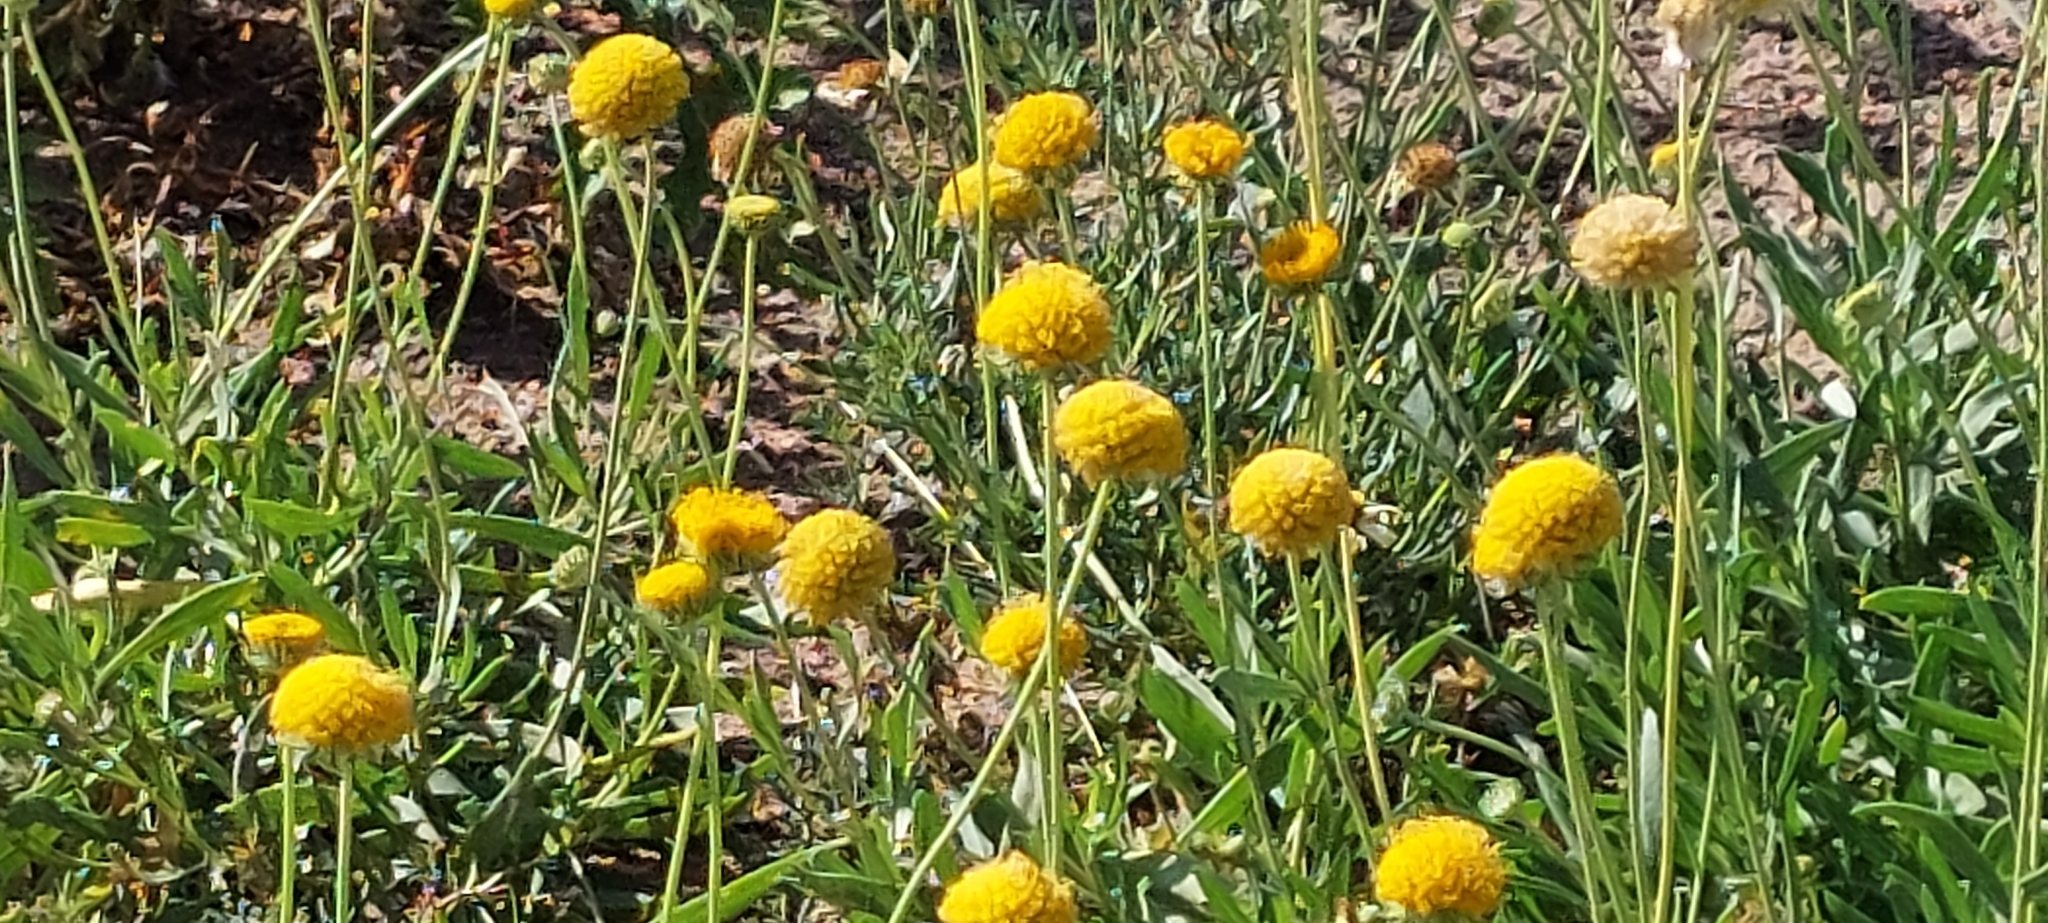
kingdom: Plantae
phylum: Tracheophyta
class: Magnoliopsida
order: Asterales
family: Asteraceae
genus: Gaillardia
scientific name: Gaillardia megapotamica
